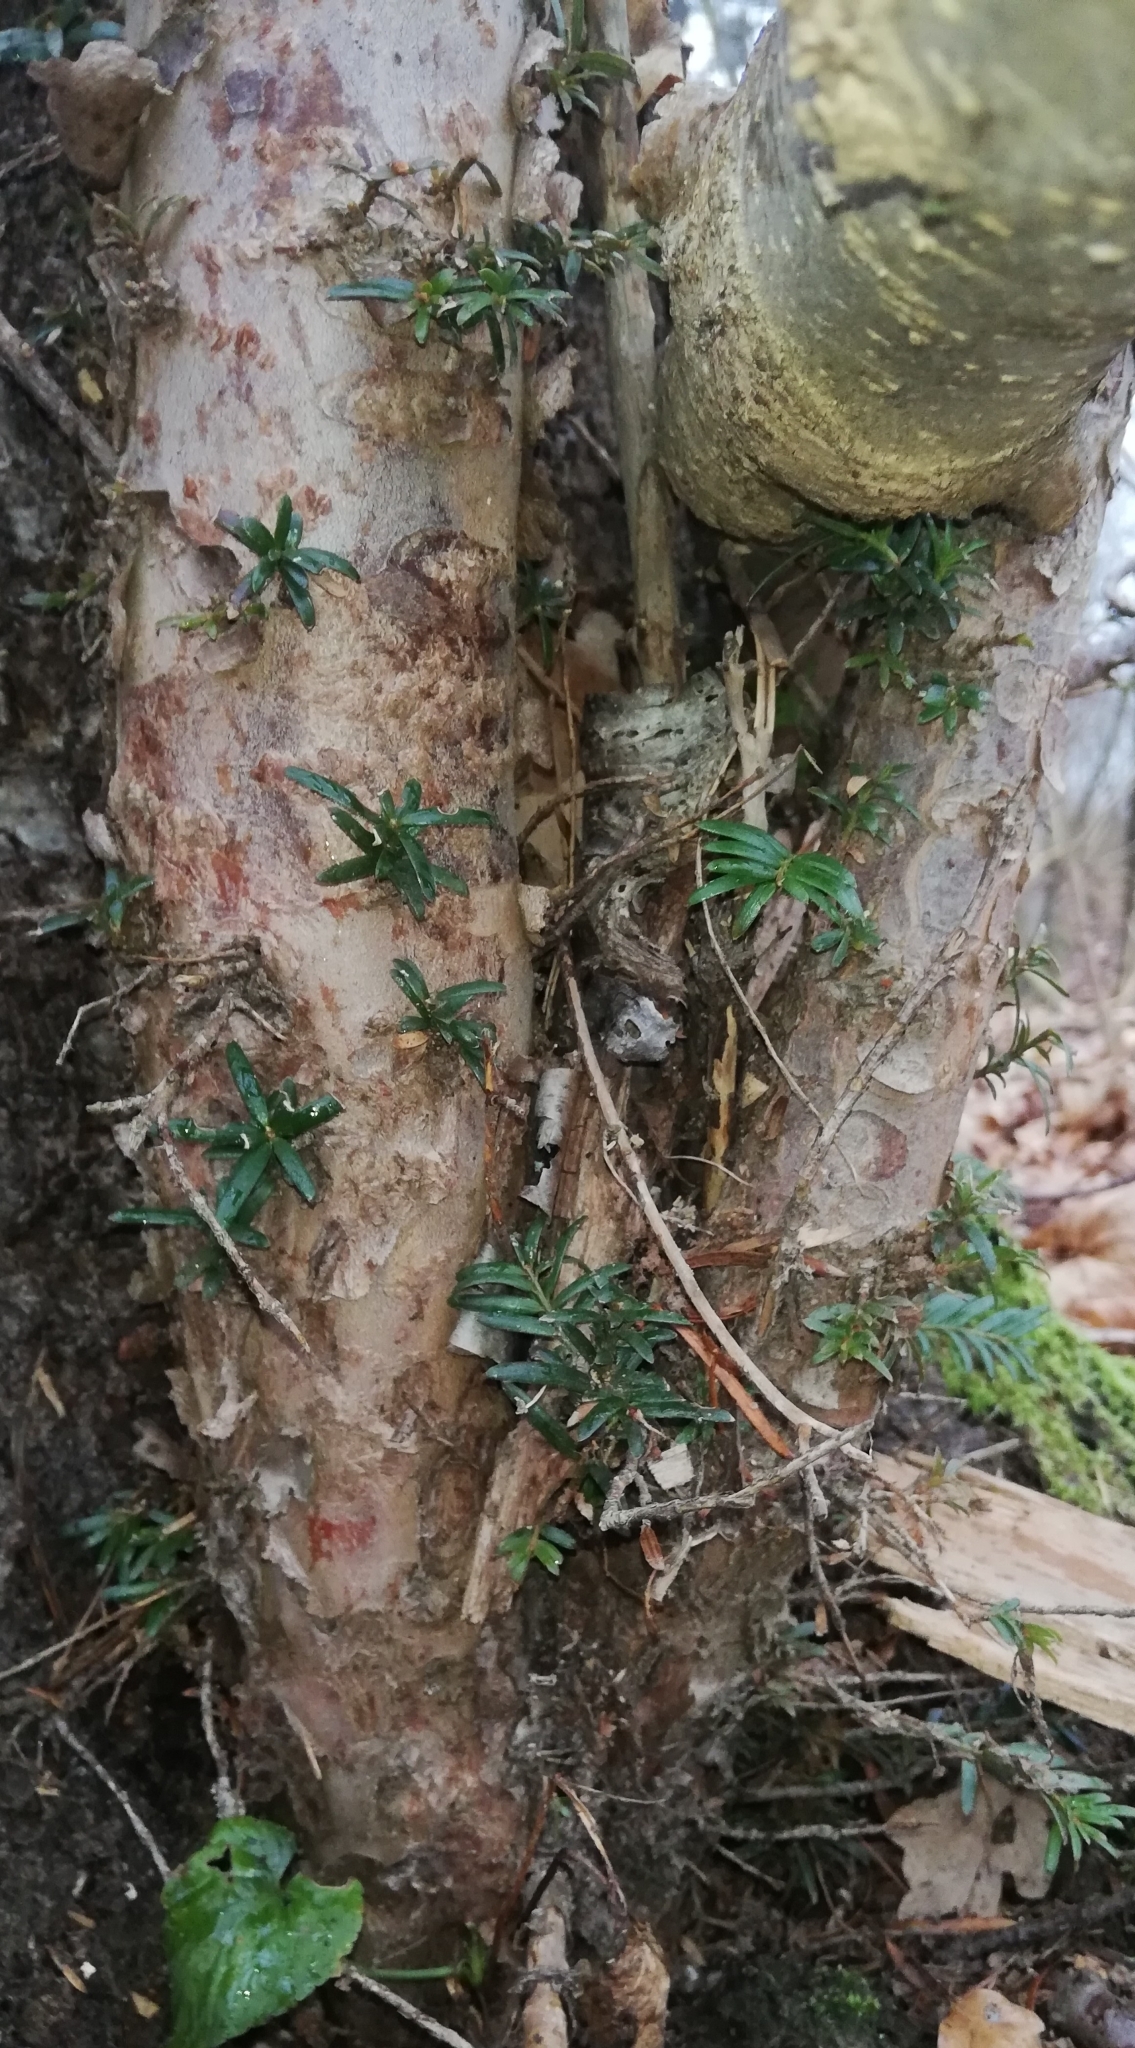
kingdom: Plantae
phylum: Tracheophyta
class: Pinopsida
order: Pinales
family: Taxaceae
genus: Taxus
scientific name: Taxus baccata
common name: Yew
